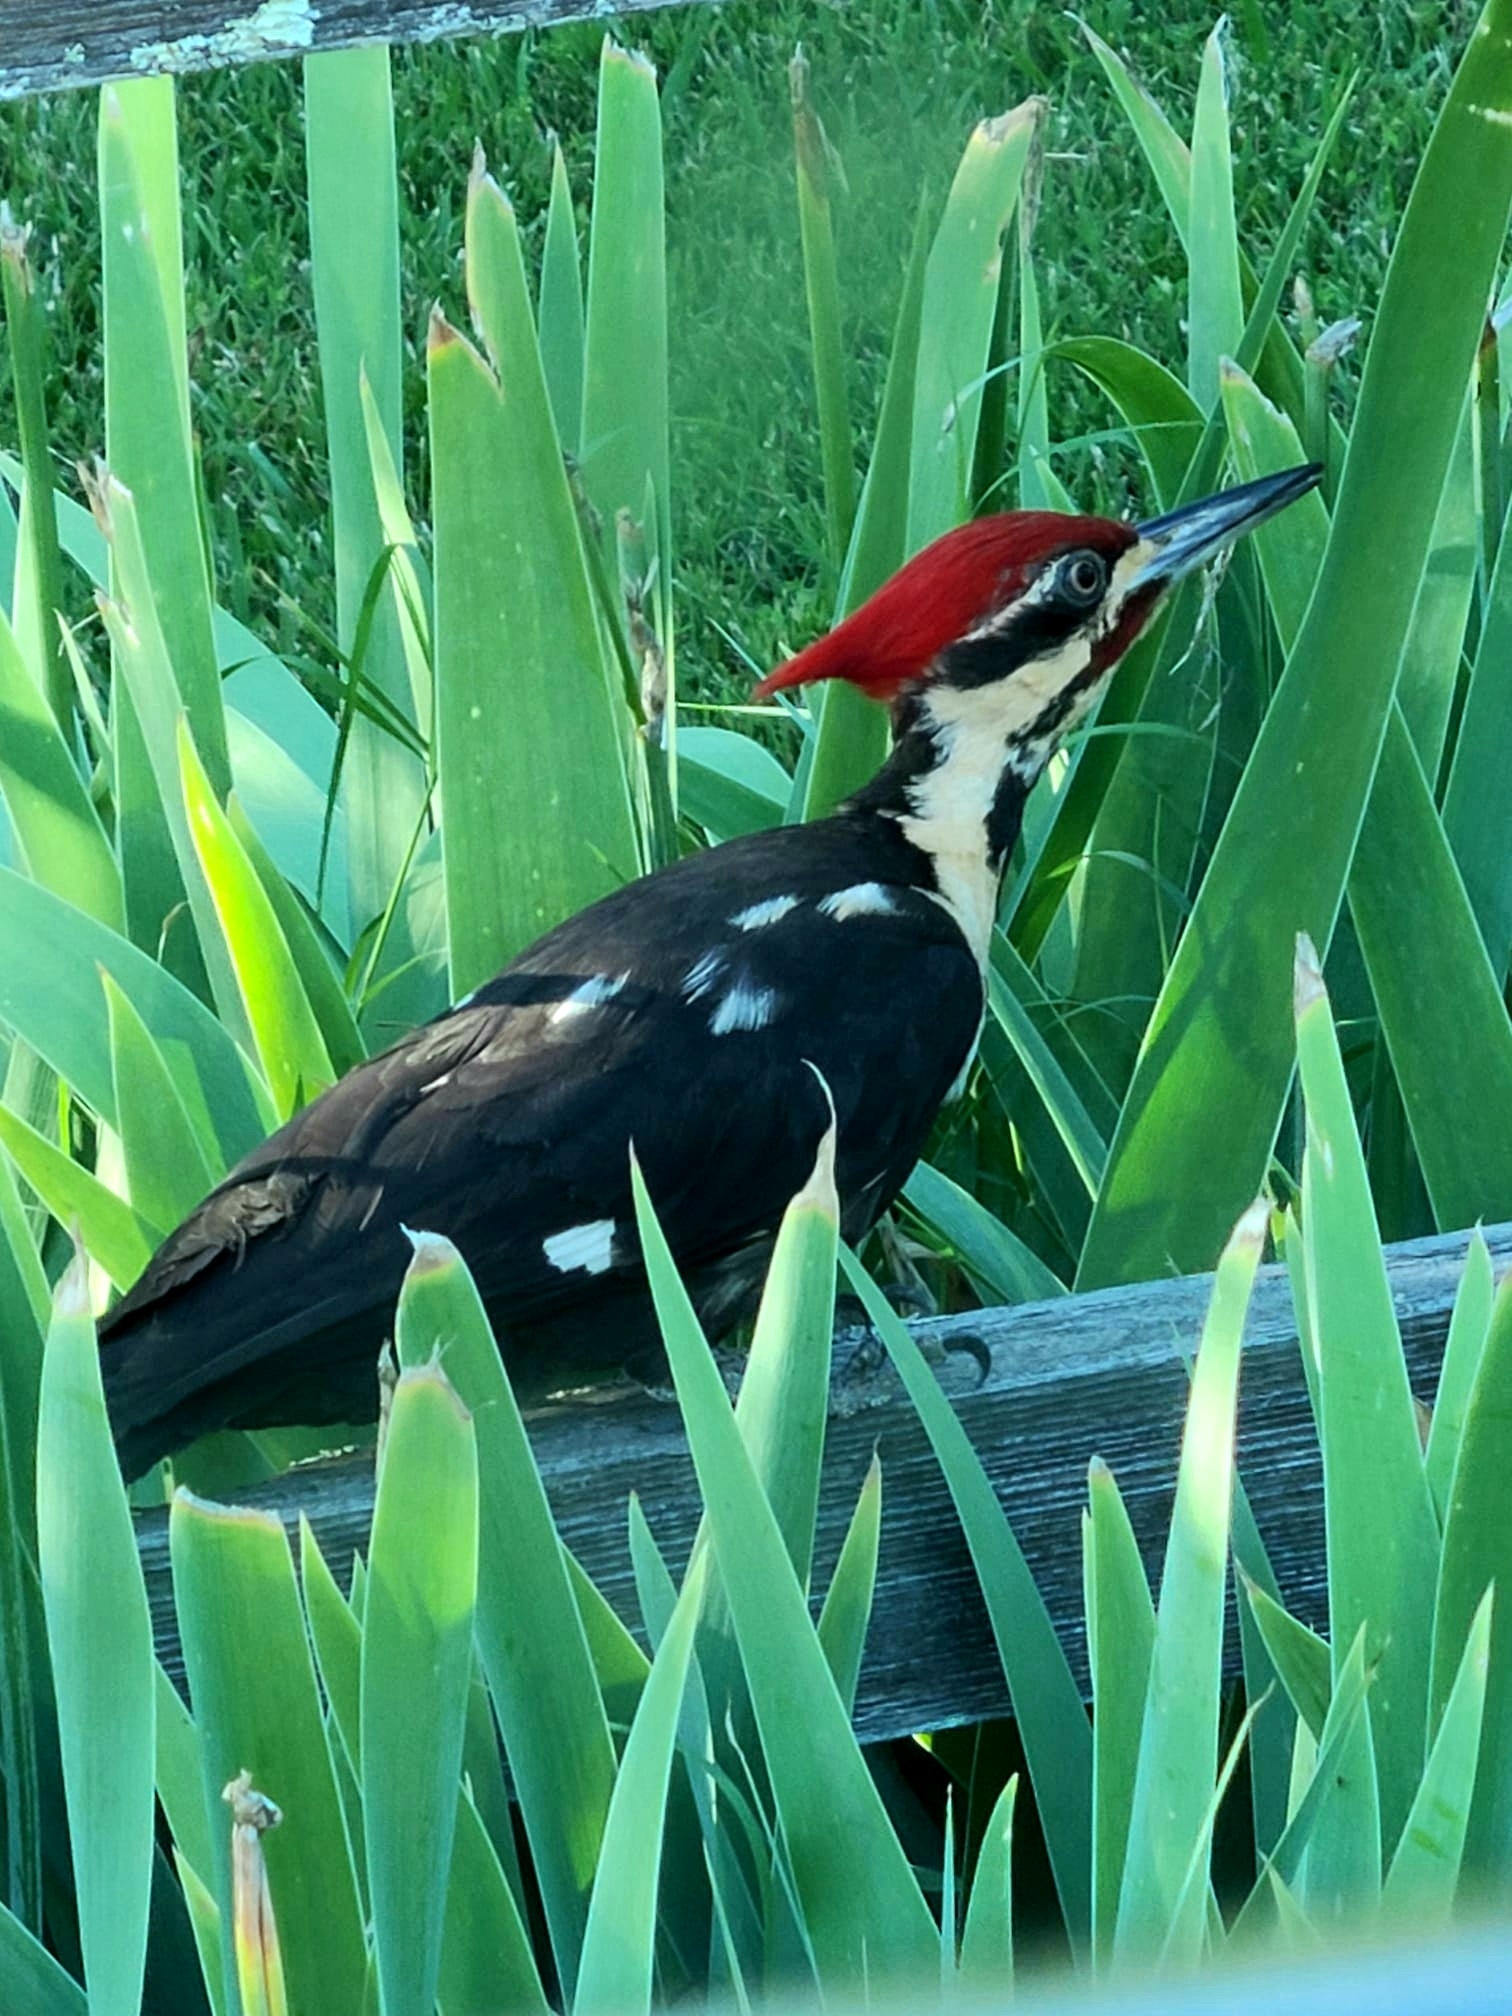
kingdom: Animalia
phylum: Chordata
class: Aves
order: Piciformes
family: Picidae
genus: Dryocopus
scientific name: Dryocopus pileatus
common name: Pileated woodpecker
